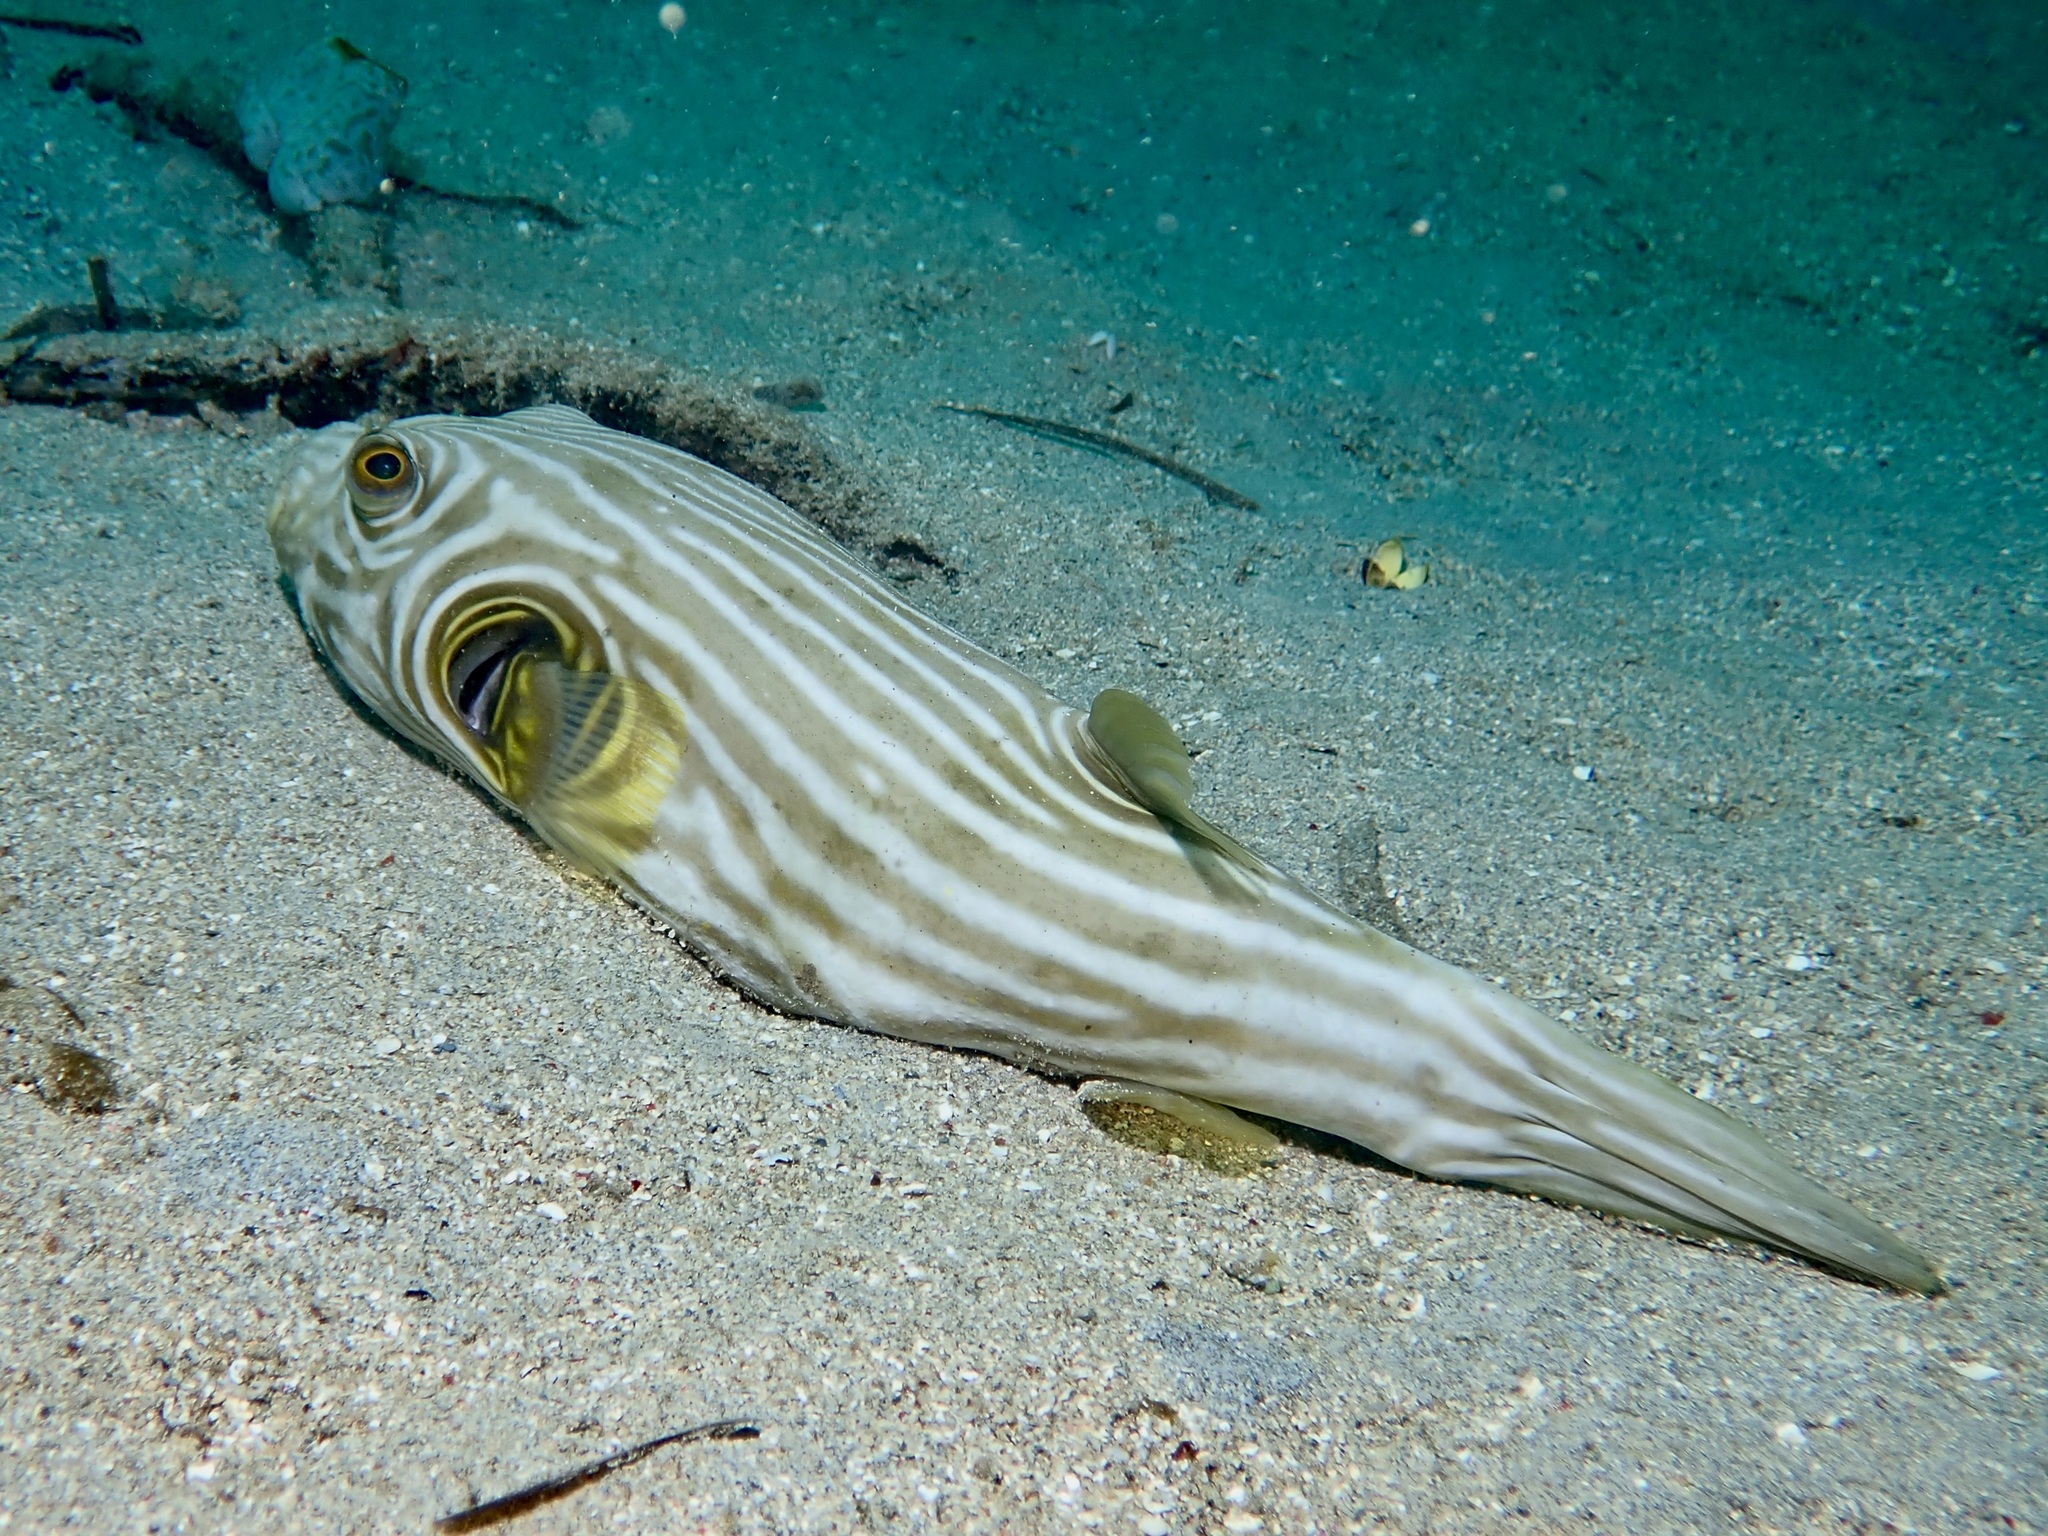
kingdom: Animalia
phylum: Chordata
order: Tetraodontiformes
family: Tetraodontidae
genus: Arothron
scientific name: Arothron manilensis
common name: Narrow-lined puffer
